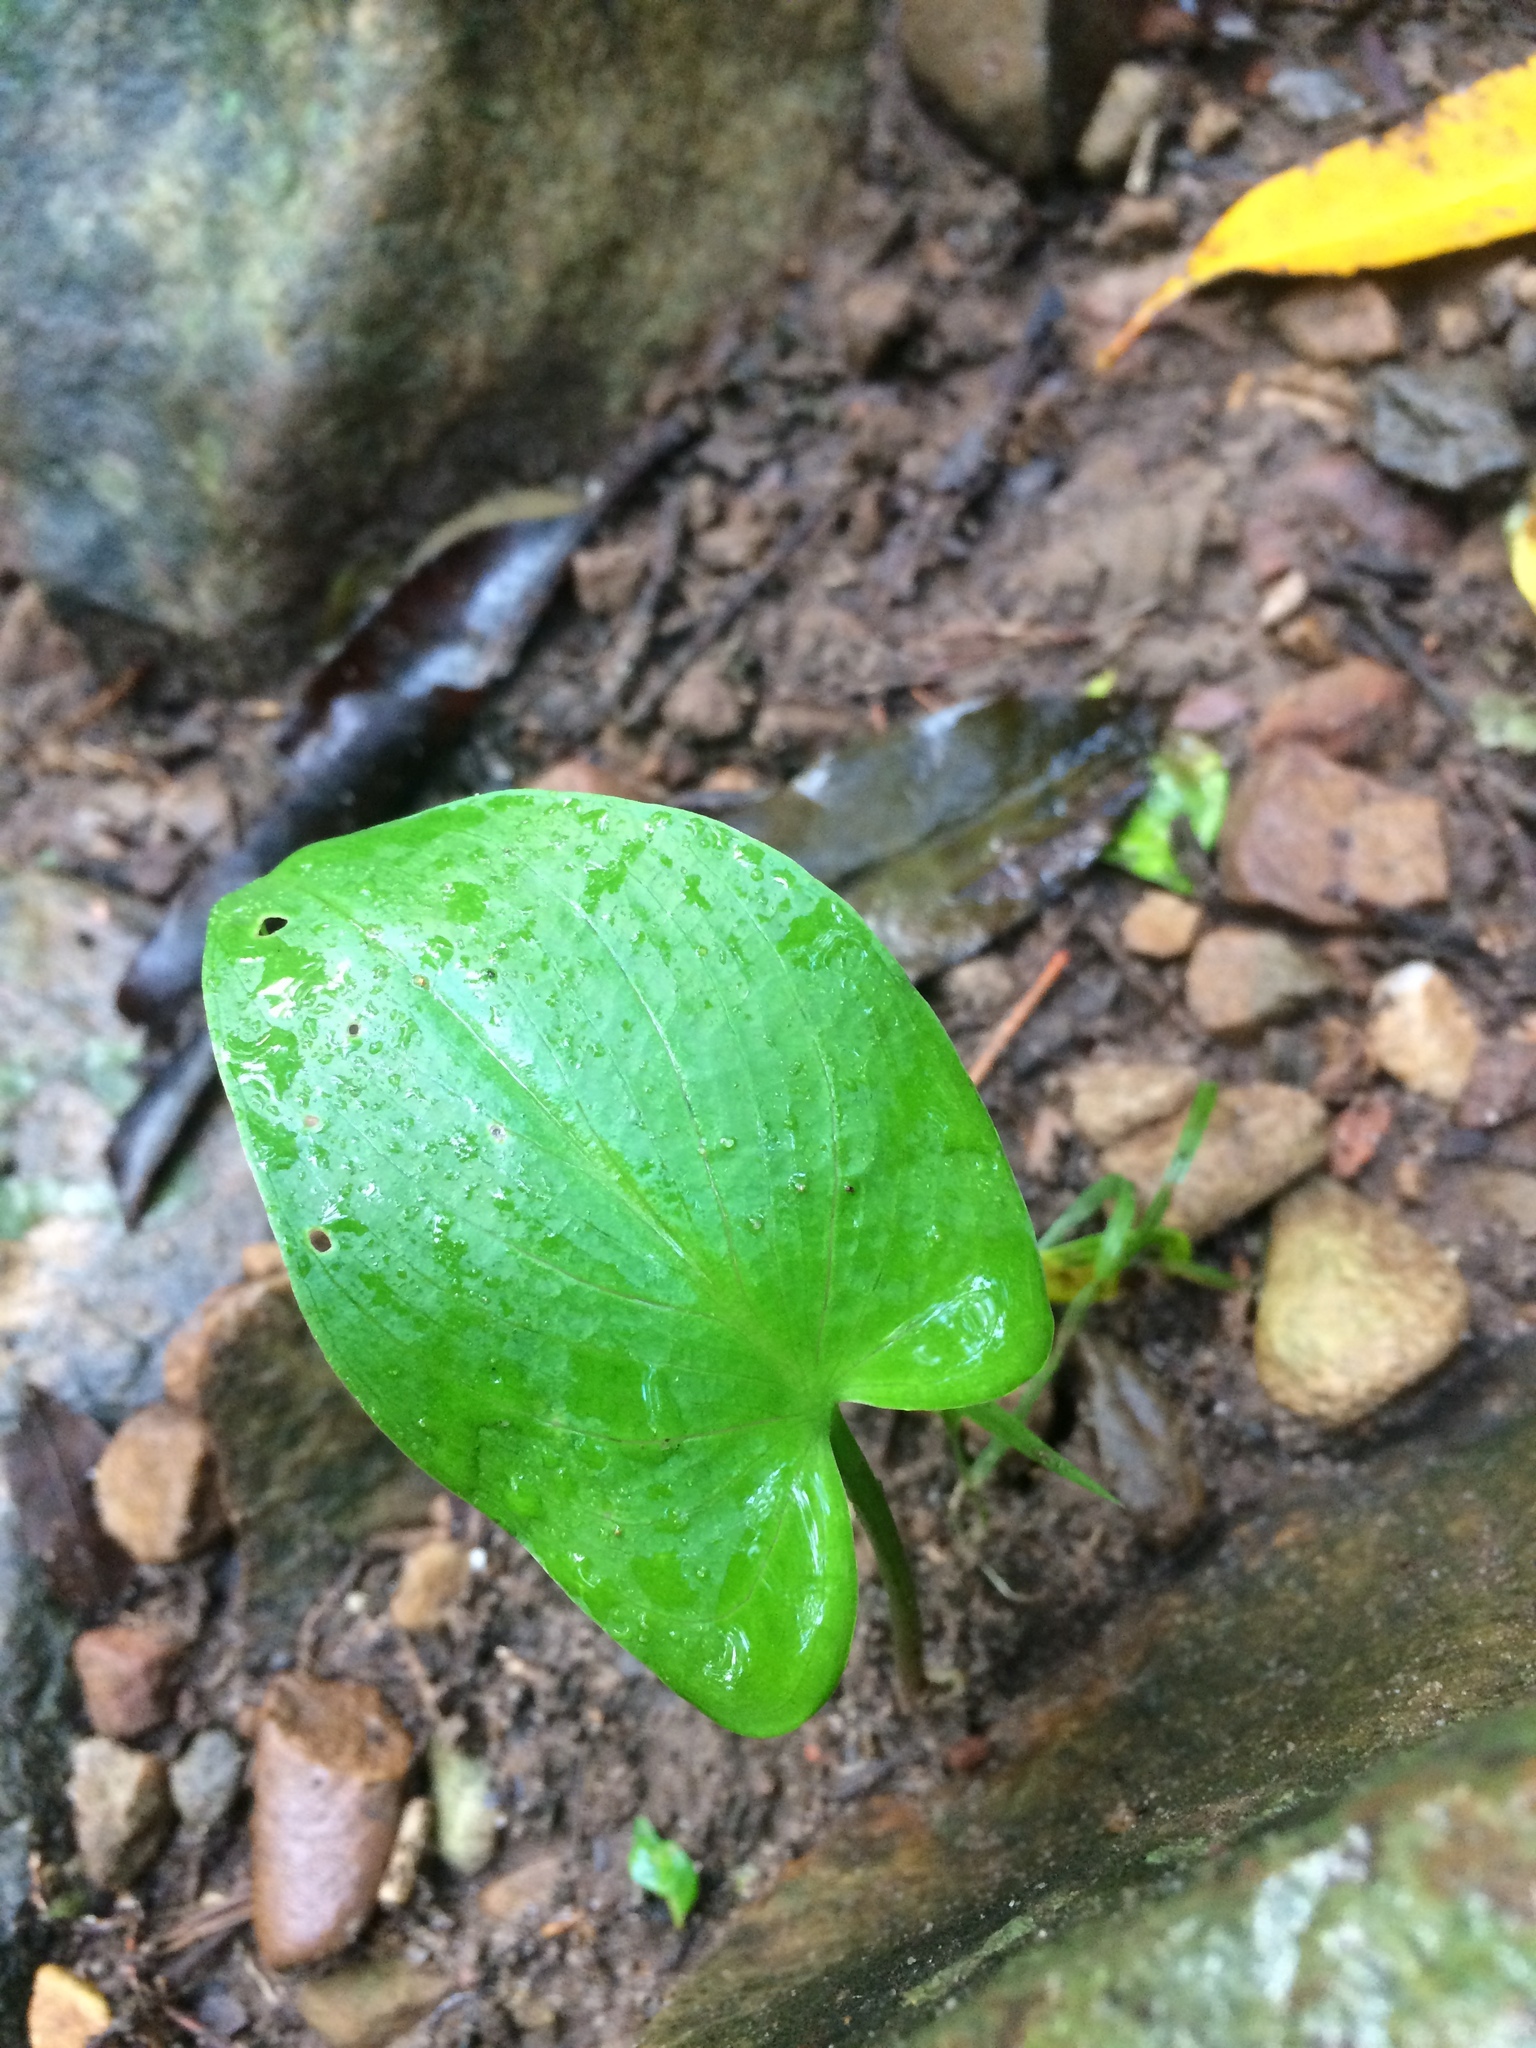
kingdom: Plantae
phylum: Tracheophyta
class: Liliopsida
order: Alismatales
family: Araceae
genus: Zantedeschia
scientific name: Zantedeschia aethiopica
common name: Altar-lily
